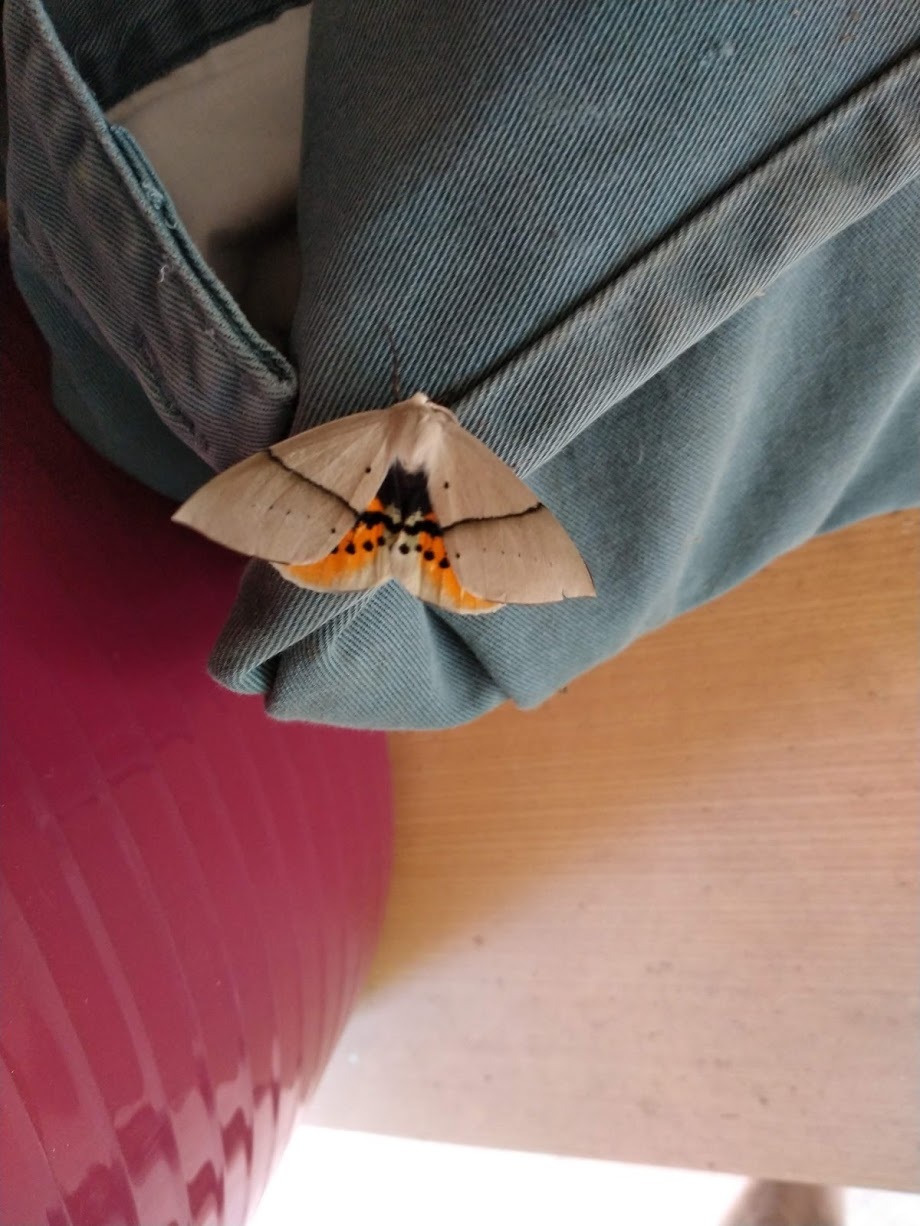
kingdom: Animalia
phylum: Arthropoda
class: Insecta
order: Lepidoptera
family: Geometridae
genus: Gastrophora
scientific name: Gastrophora henricaria
